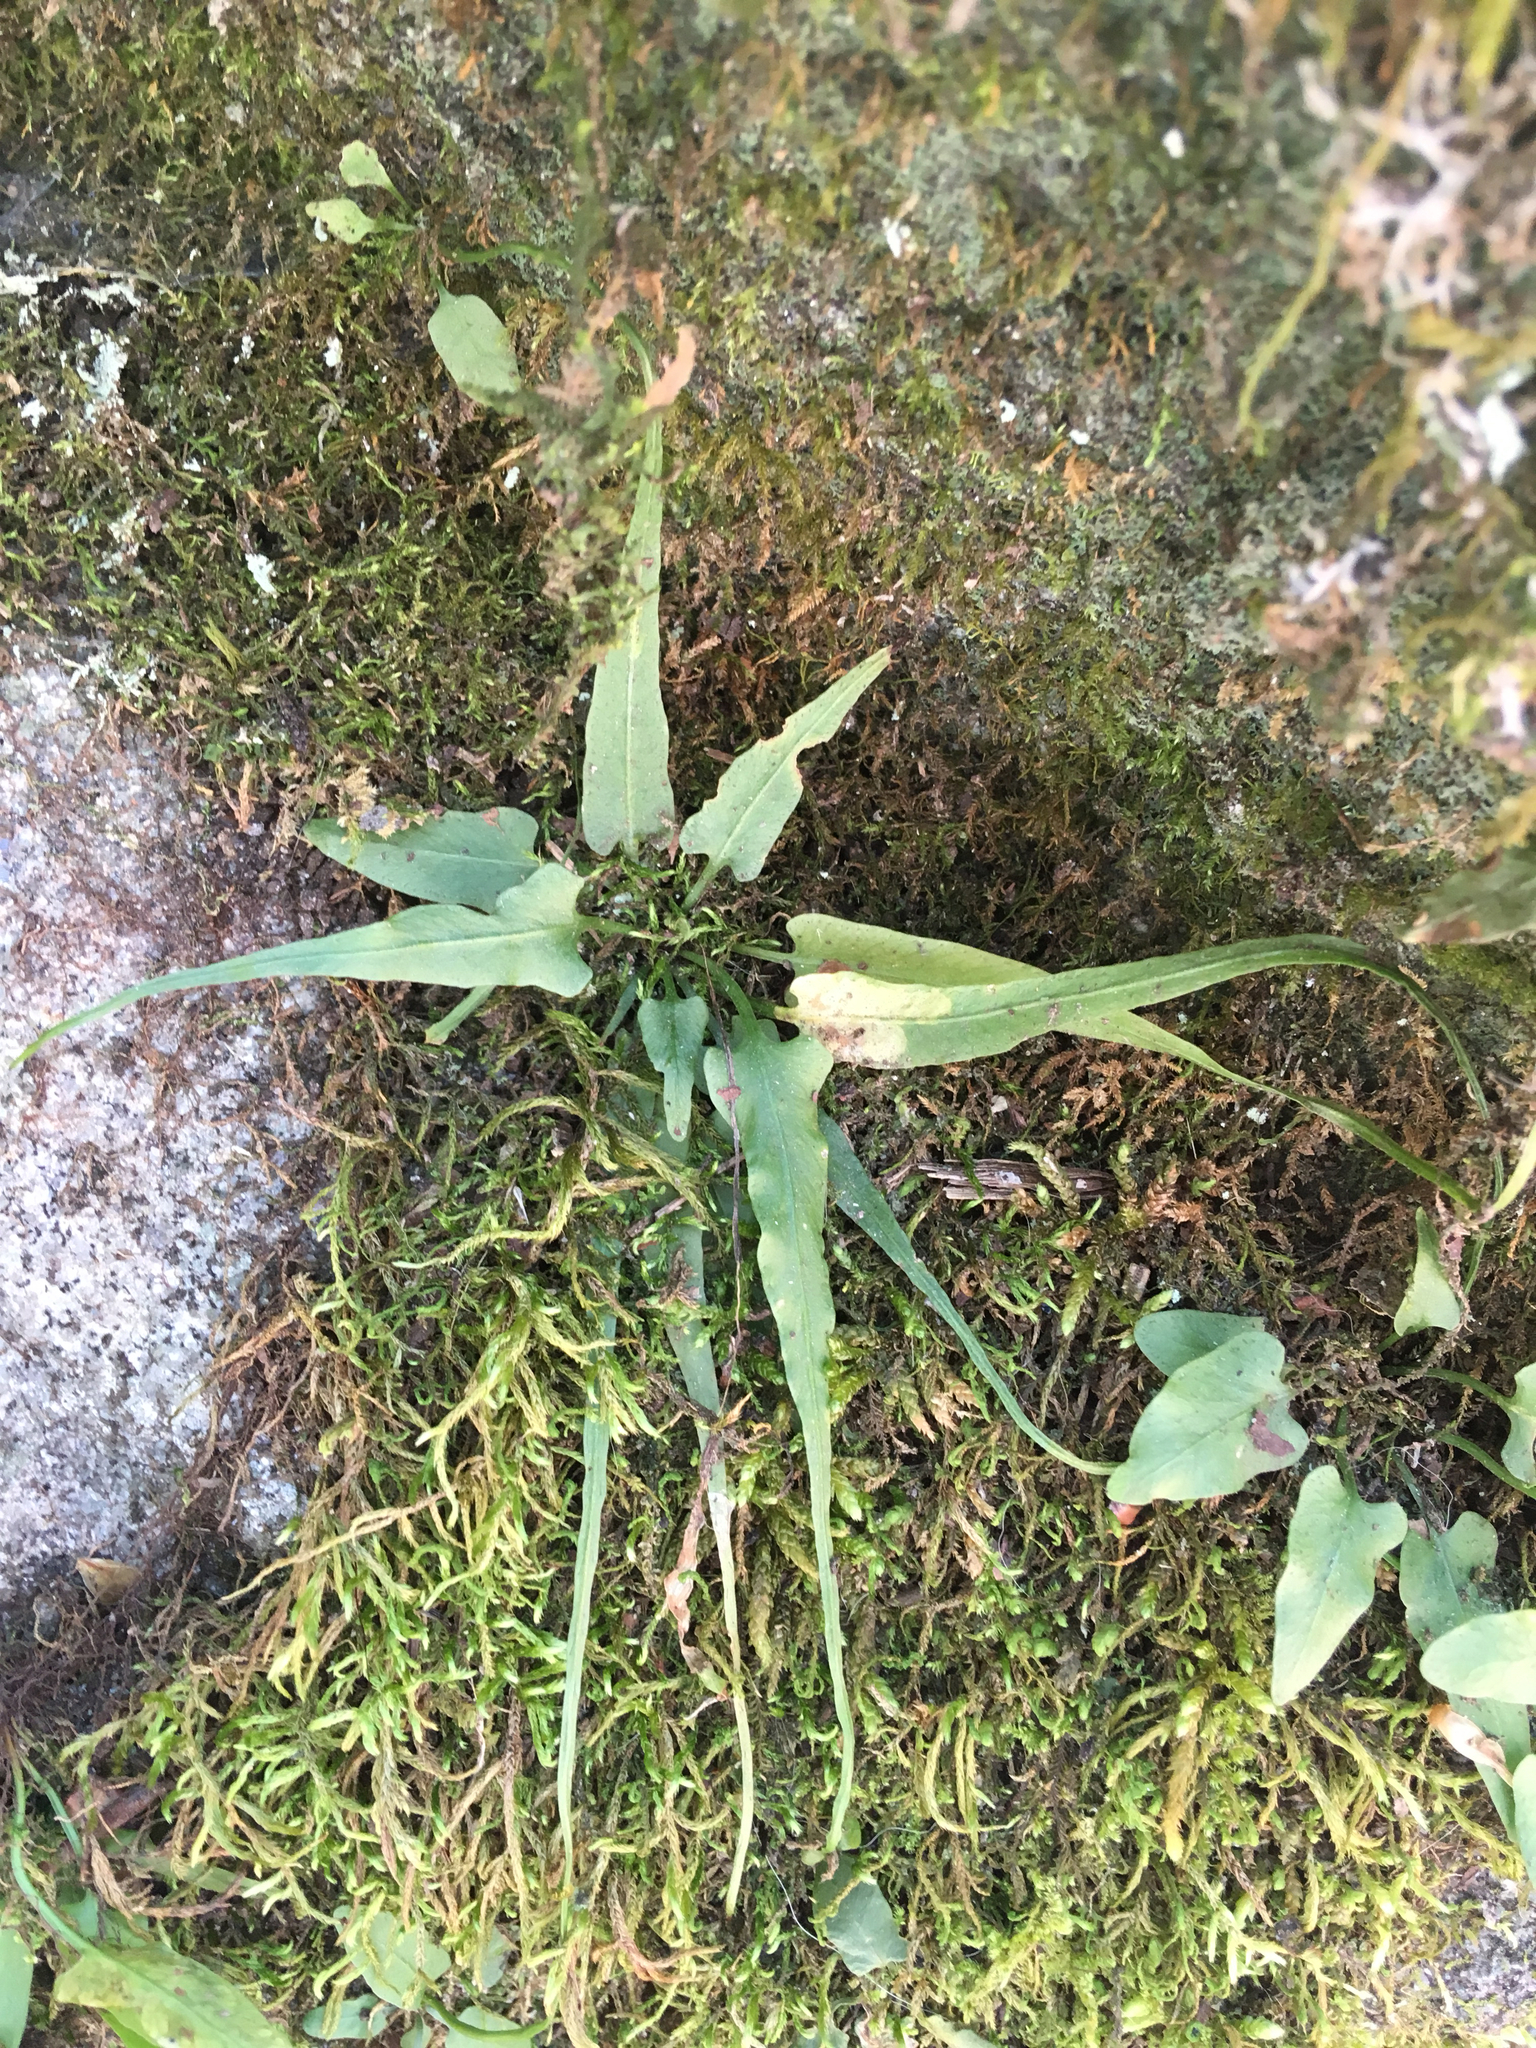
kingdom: Plantae
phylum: Tracheophyta
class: Polypodiopsida
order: Polypodiales
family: Aspleniaceae
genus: Asplenium
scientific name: Asplenium rhizophyllum
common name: Walking fern
